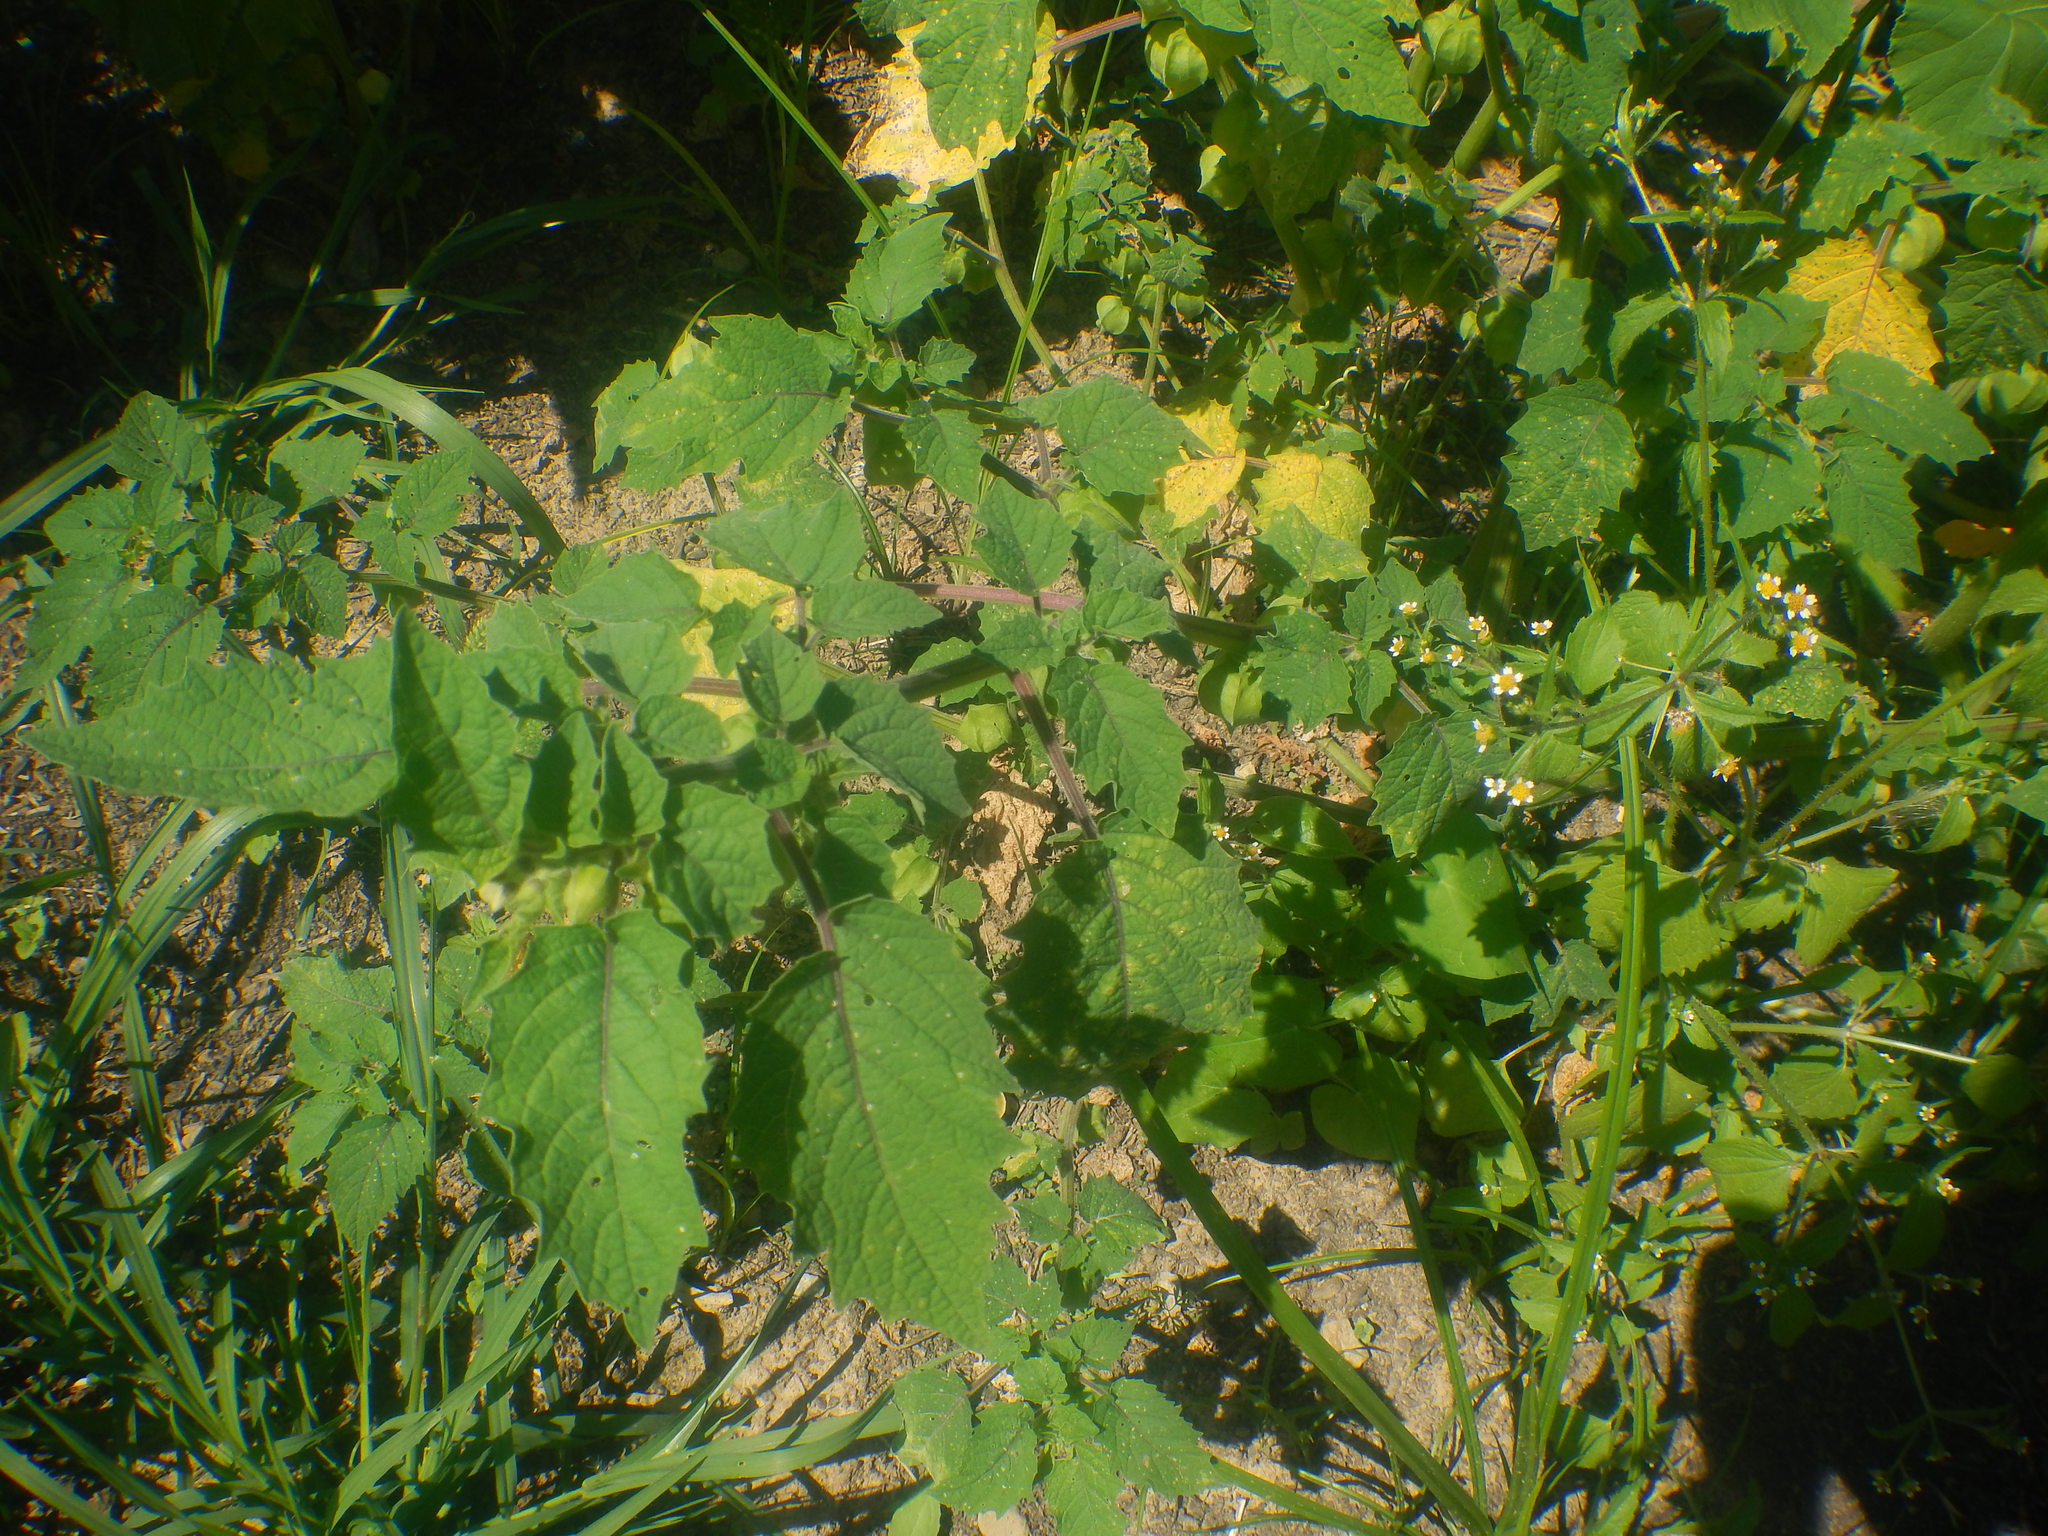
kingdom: Plantae
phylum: Tracheophyta
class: Magnoliopsida
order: Solanales
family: Solanaceae
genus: Physalis
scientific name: Physalis grisea
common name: Dwarf cape-gooseberry
